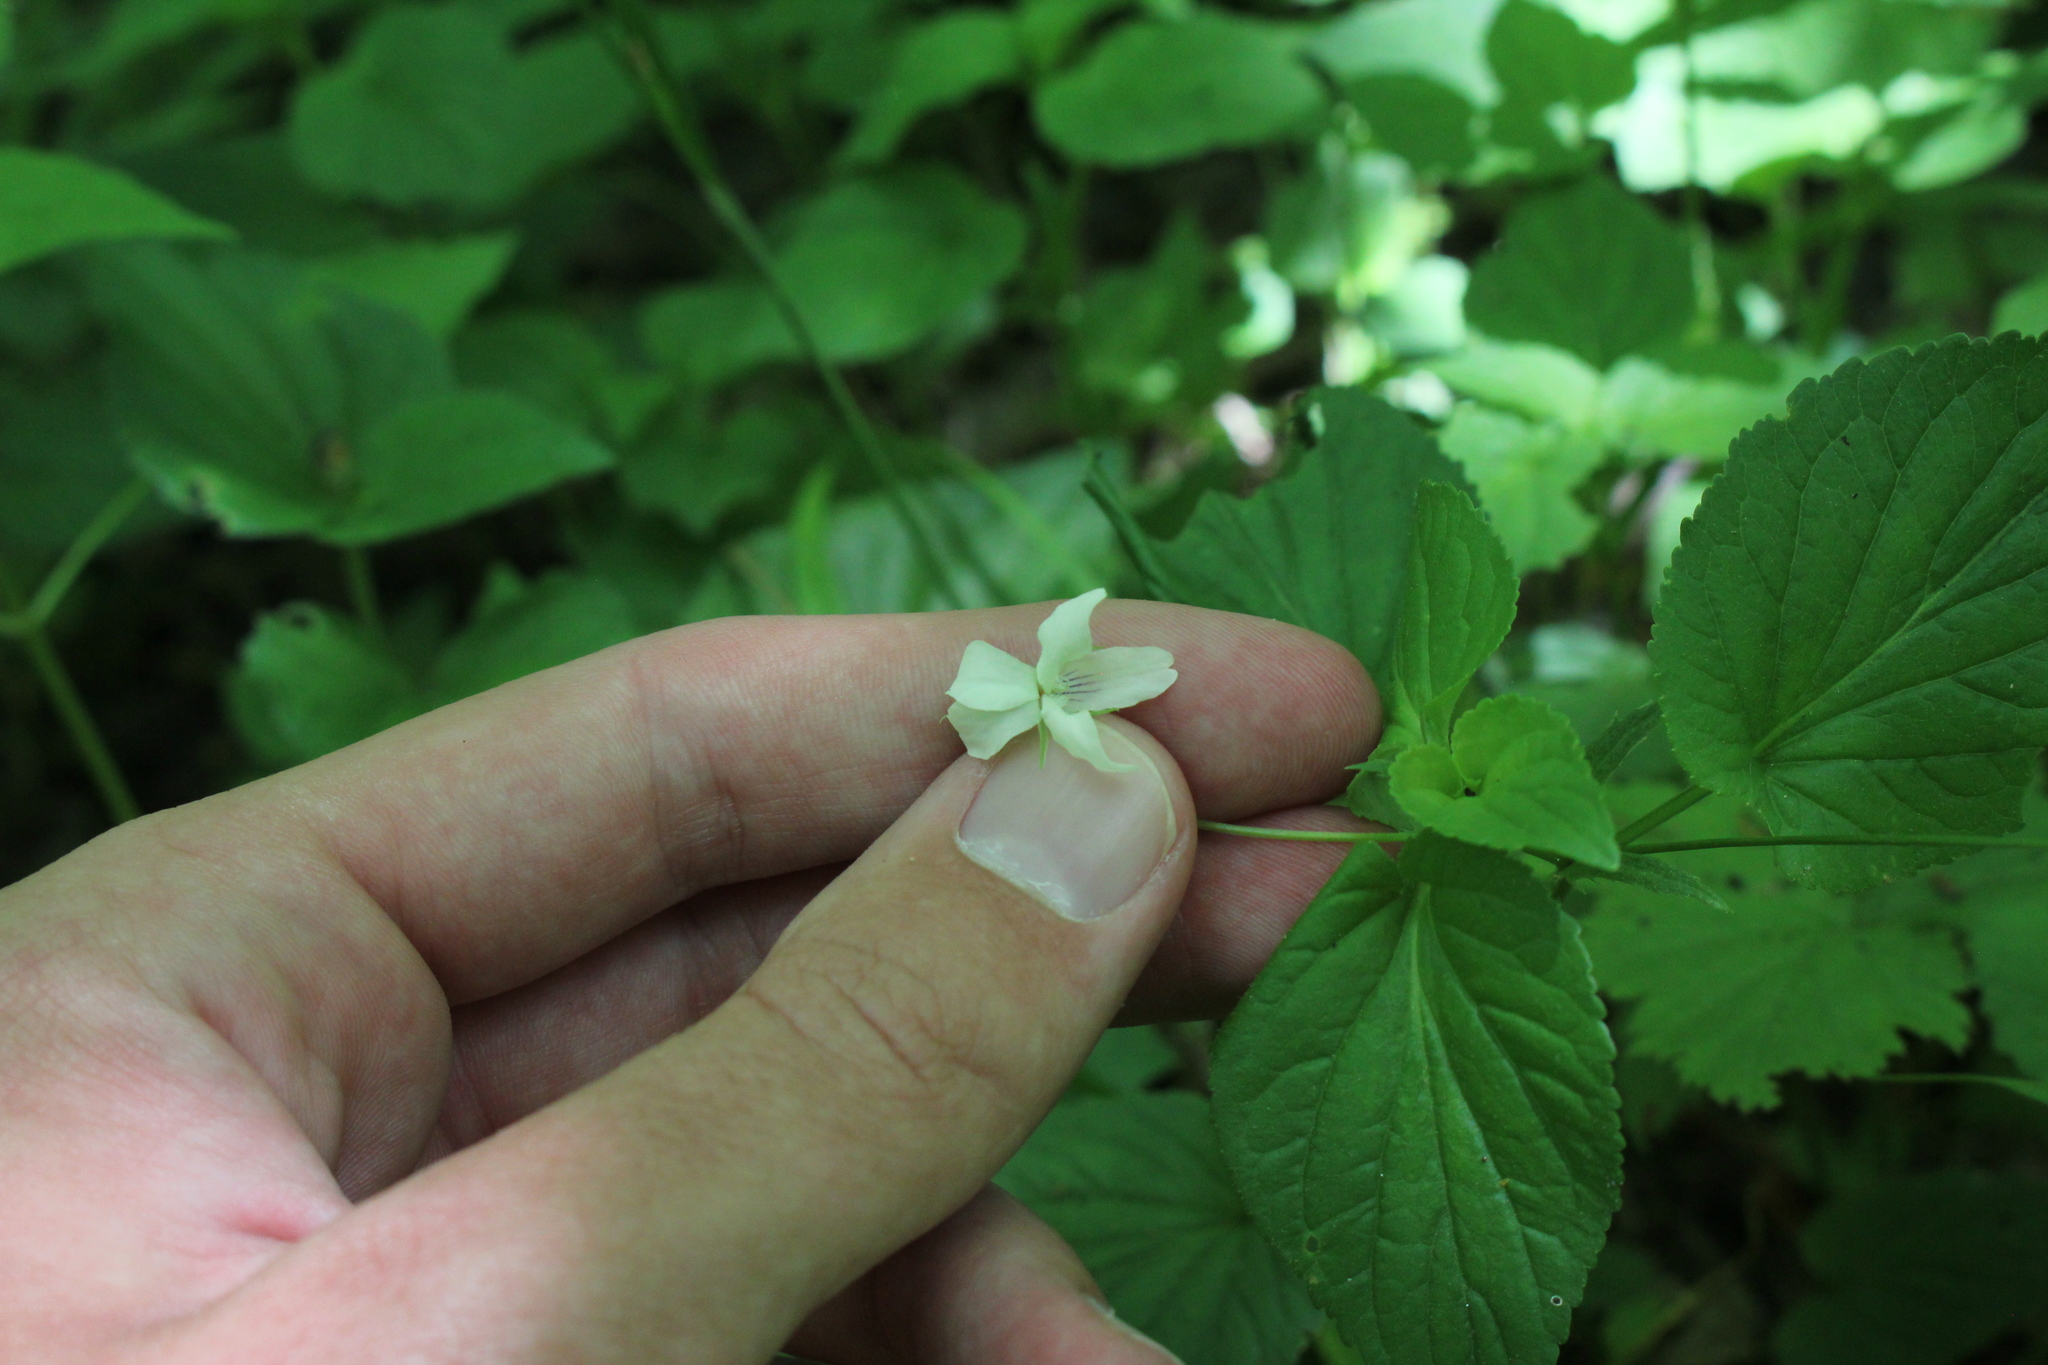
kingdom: Plantae
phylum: Tracheophyta
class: Magnoliopsida
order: Malpighiales
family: Violaceae
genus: Viola
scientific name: Viola striata
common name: Cream violet
